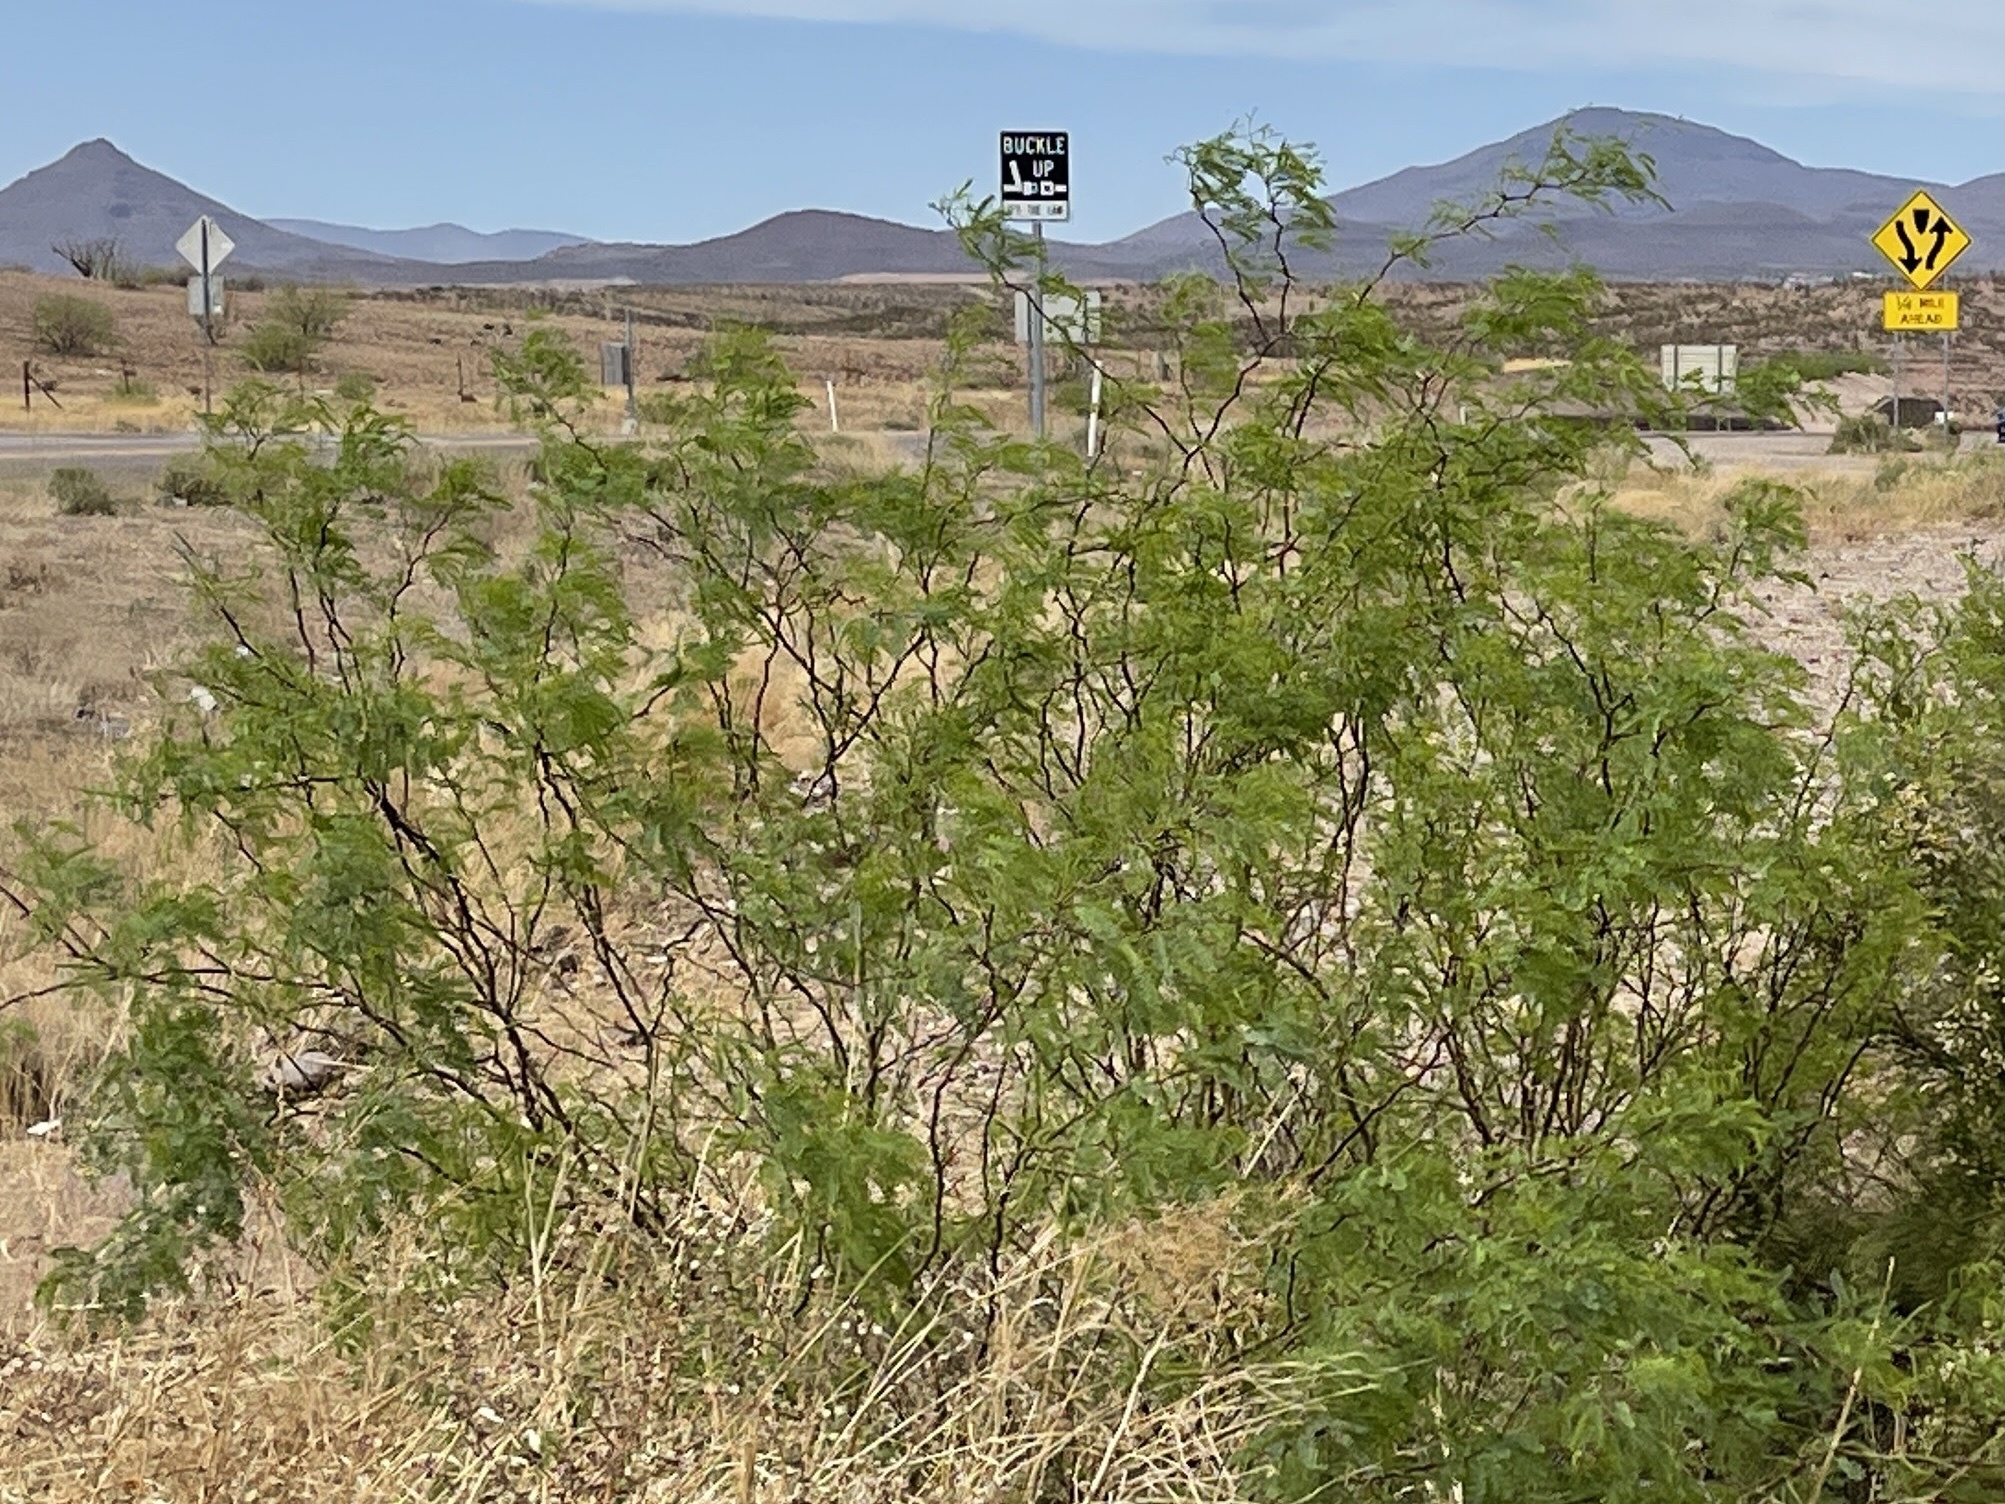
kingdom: Plantae
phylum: Tracheophyta
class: Magnoliopsida
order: Fabales
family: Fabaceae
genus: Prosopis
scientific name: Prosopis glandulosa
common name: Honey mesquite
